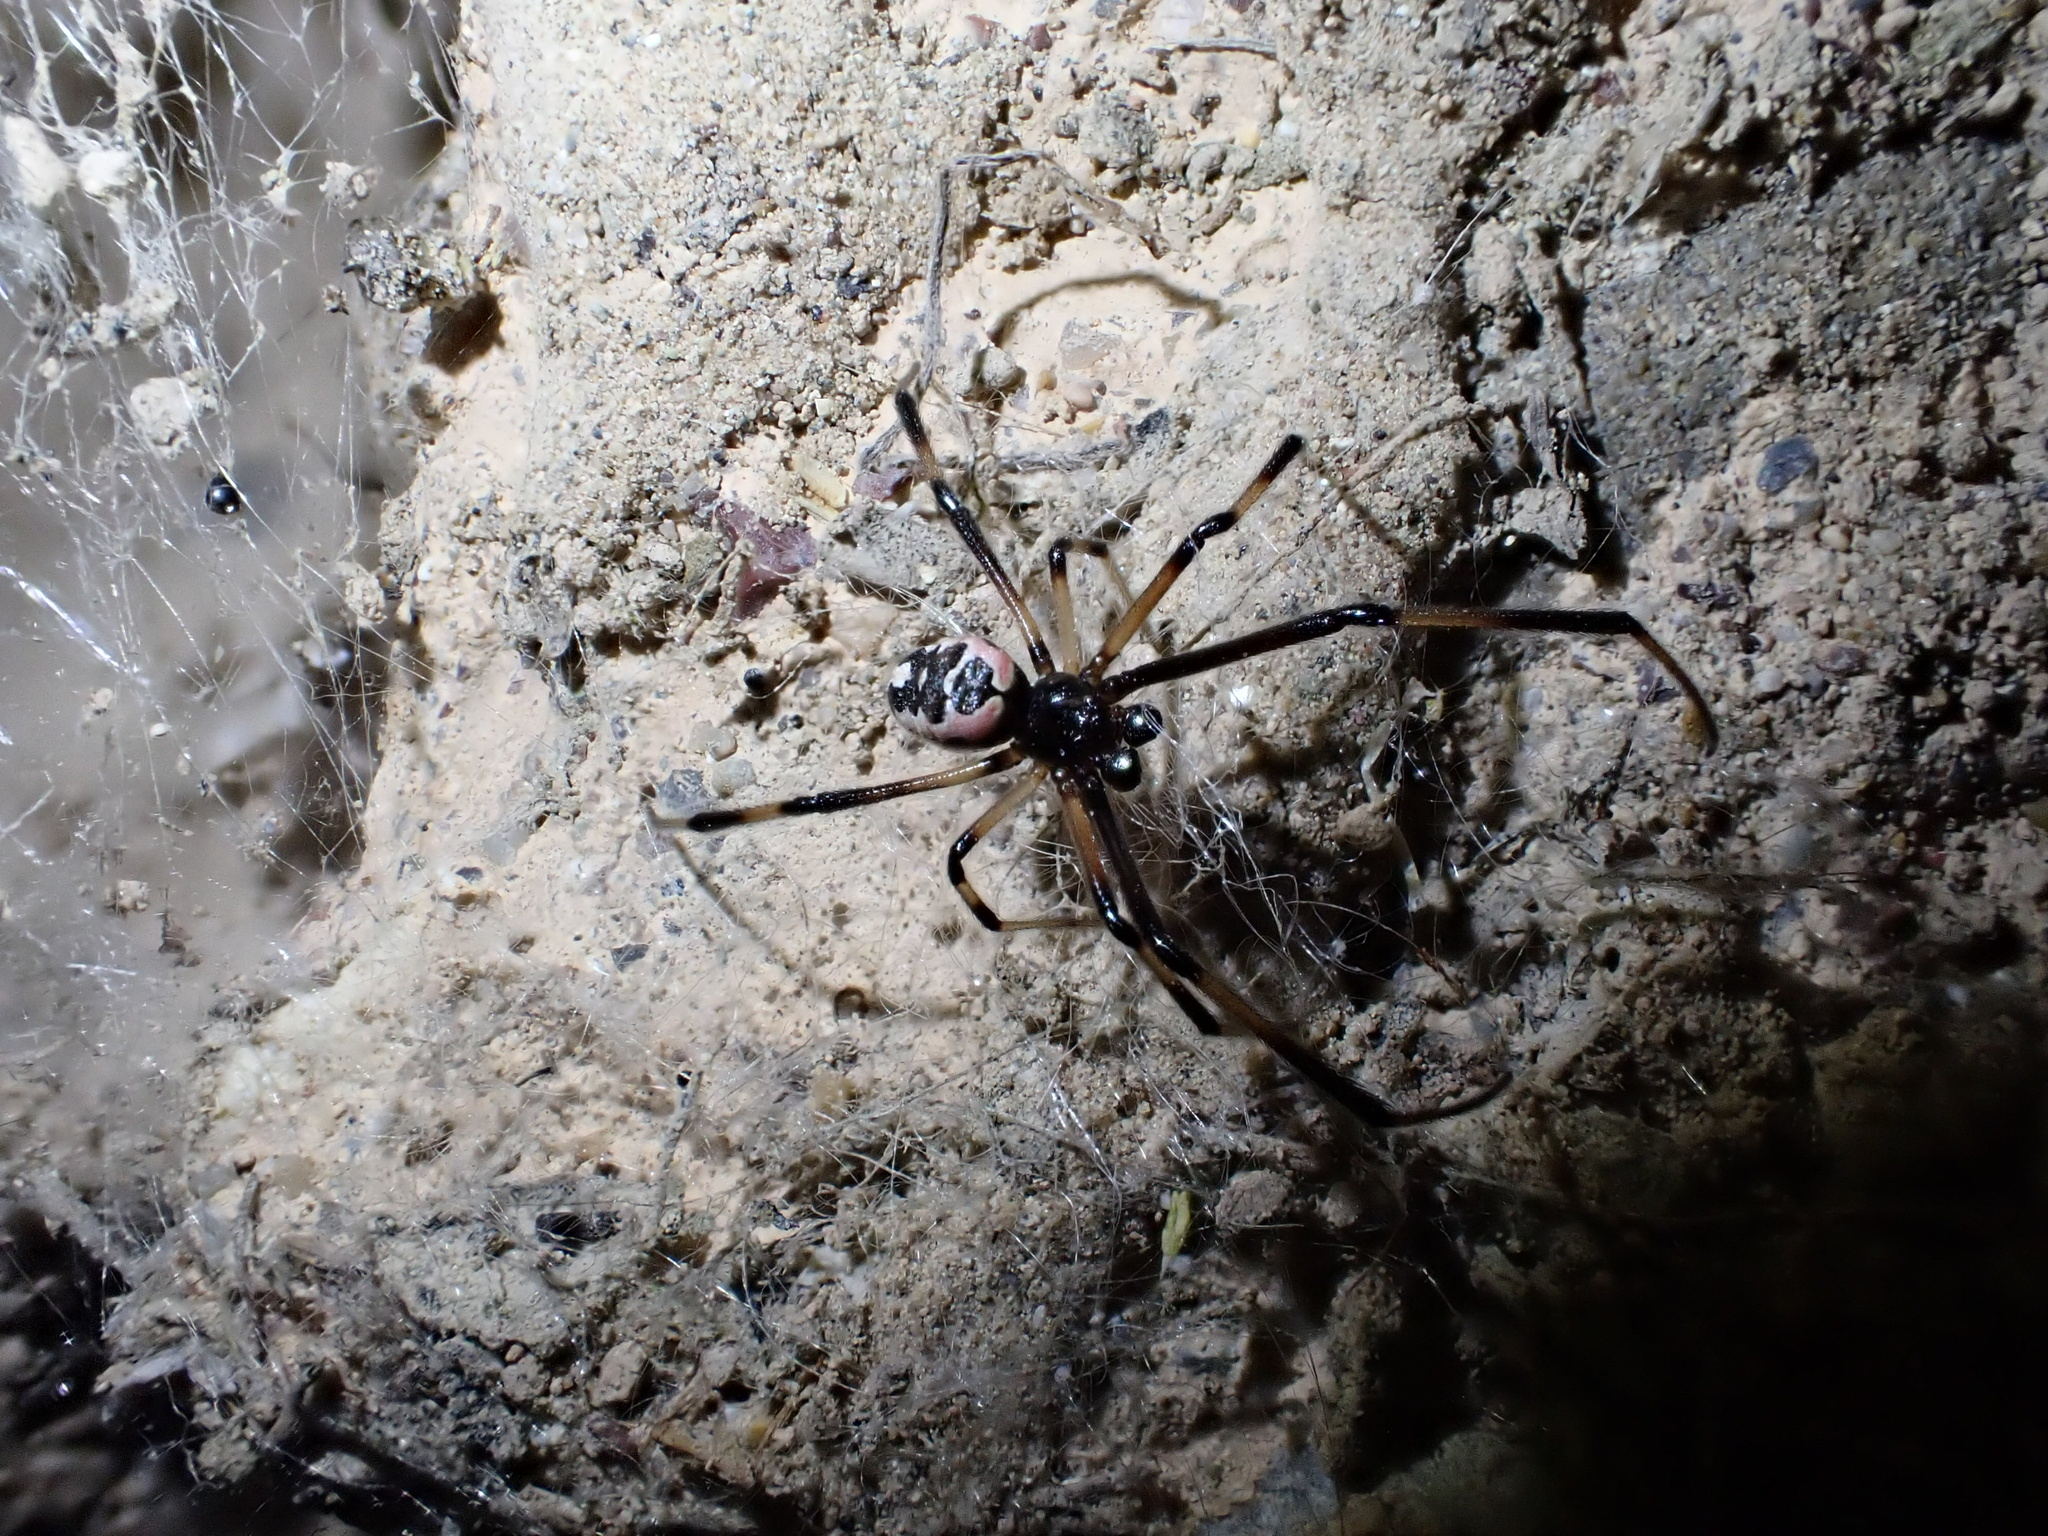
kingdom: Animalia
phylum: Arthropoda
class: Arachnida
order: Araneae
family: Theridiidae
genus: Latrodectus
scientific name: Latrodectus cinctus
